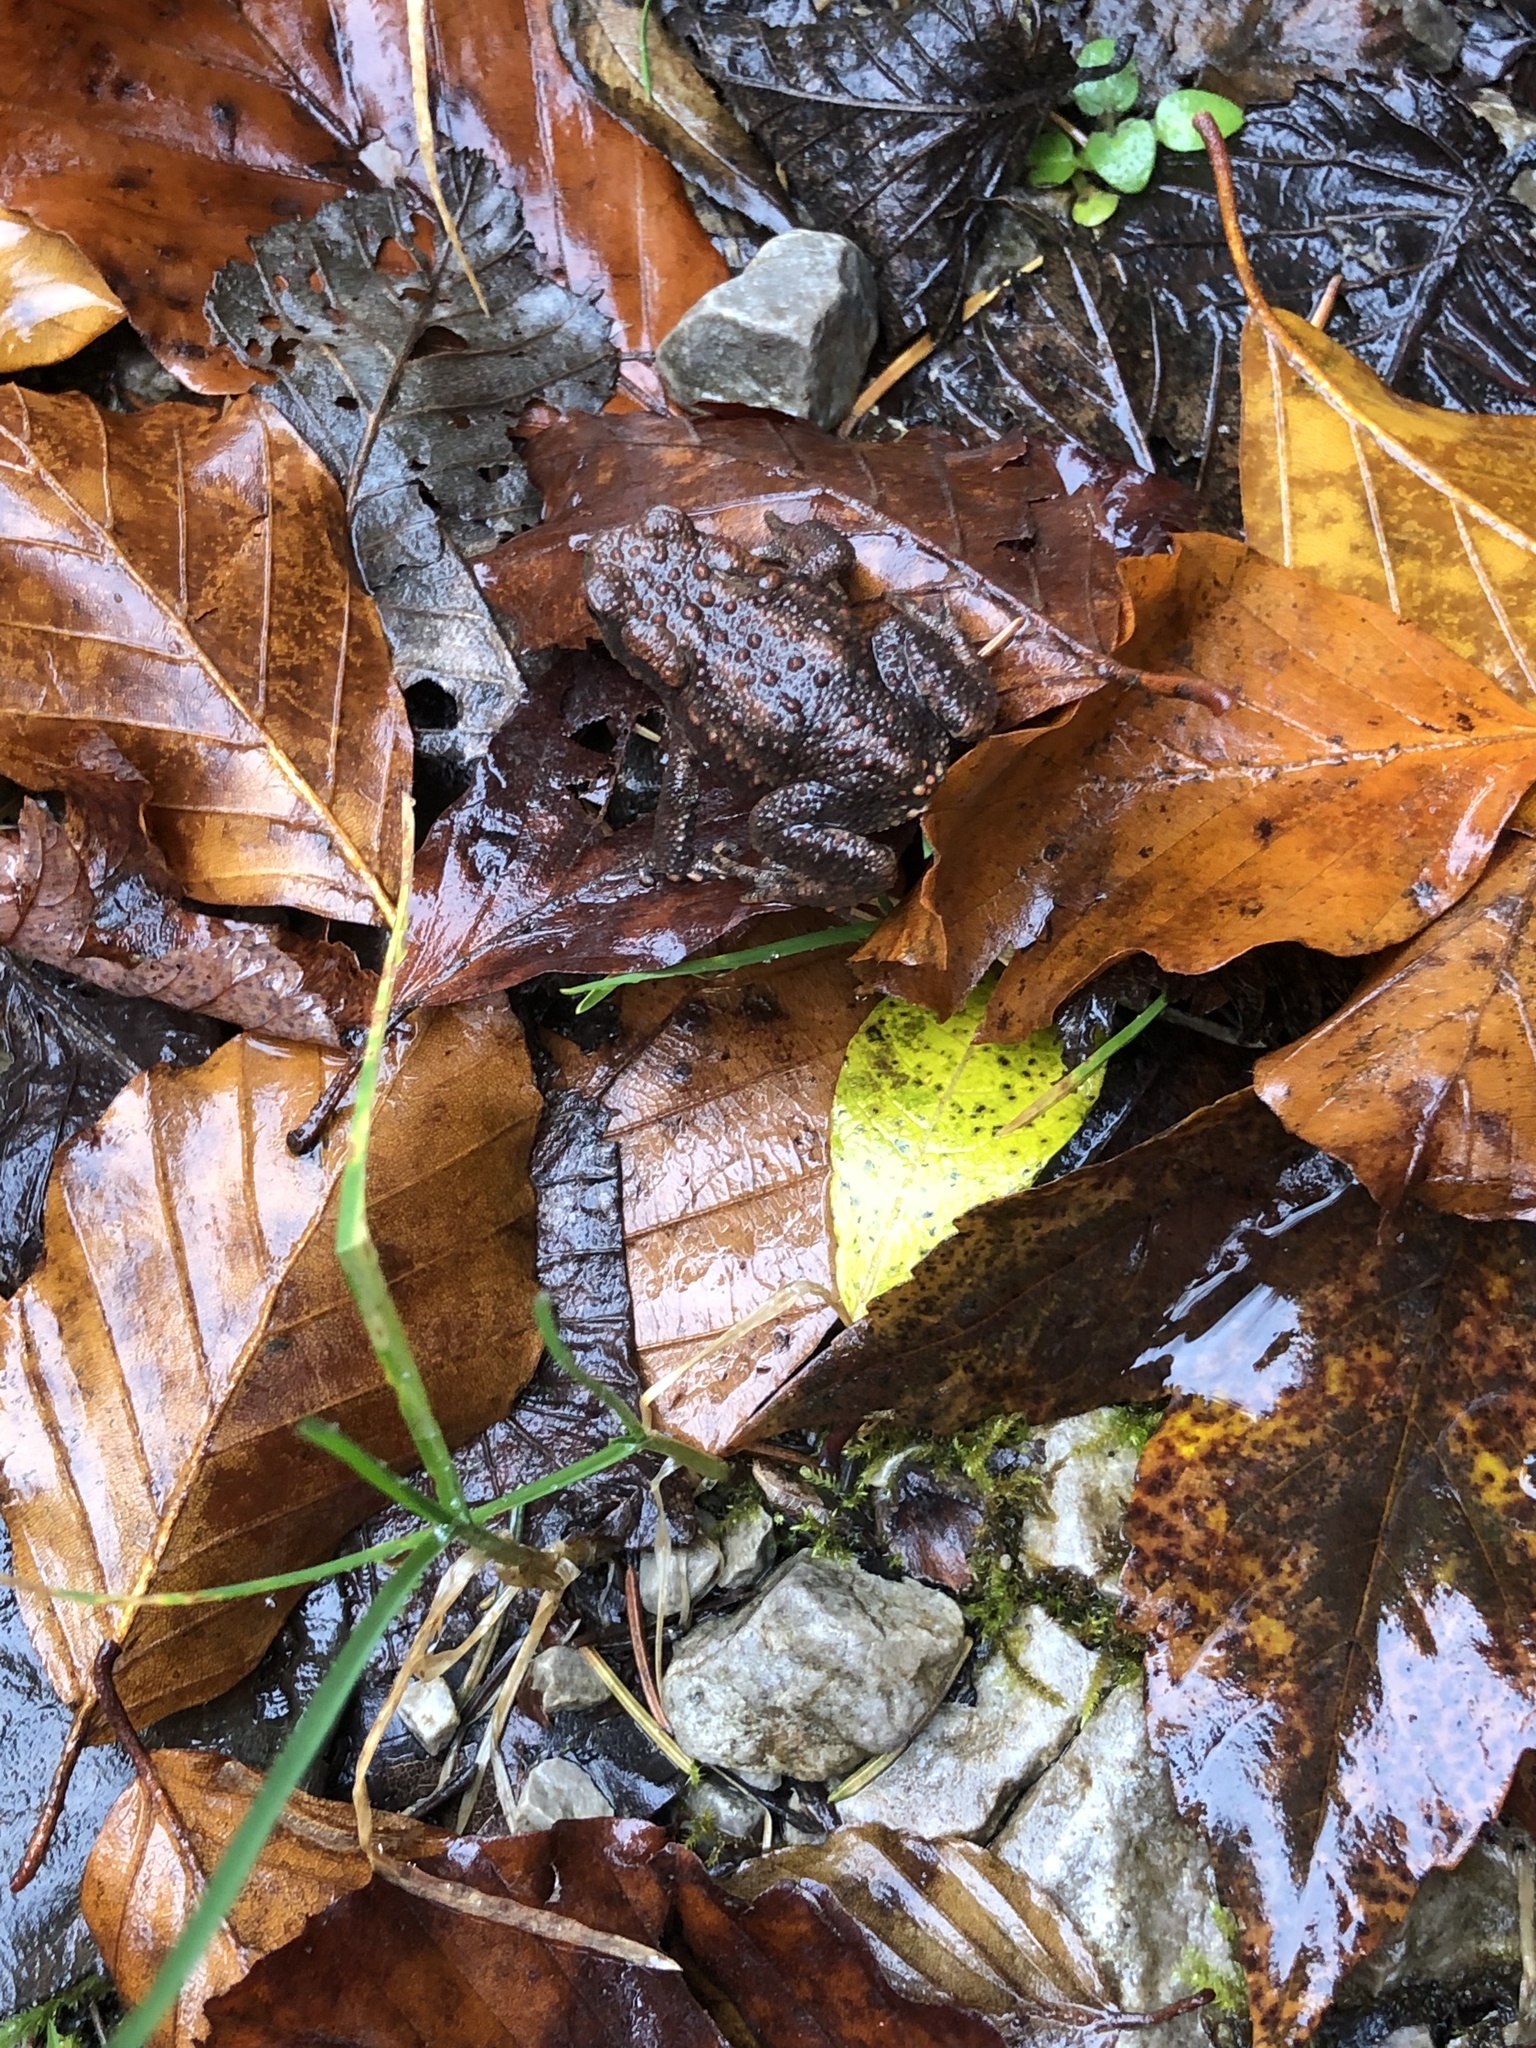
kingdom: Animalia
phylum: Chordata
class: Amphibia
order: Anura
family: Bufonidae
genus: Bufo
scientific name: Bufo bufo
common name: Common toad
